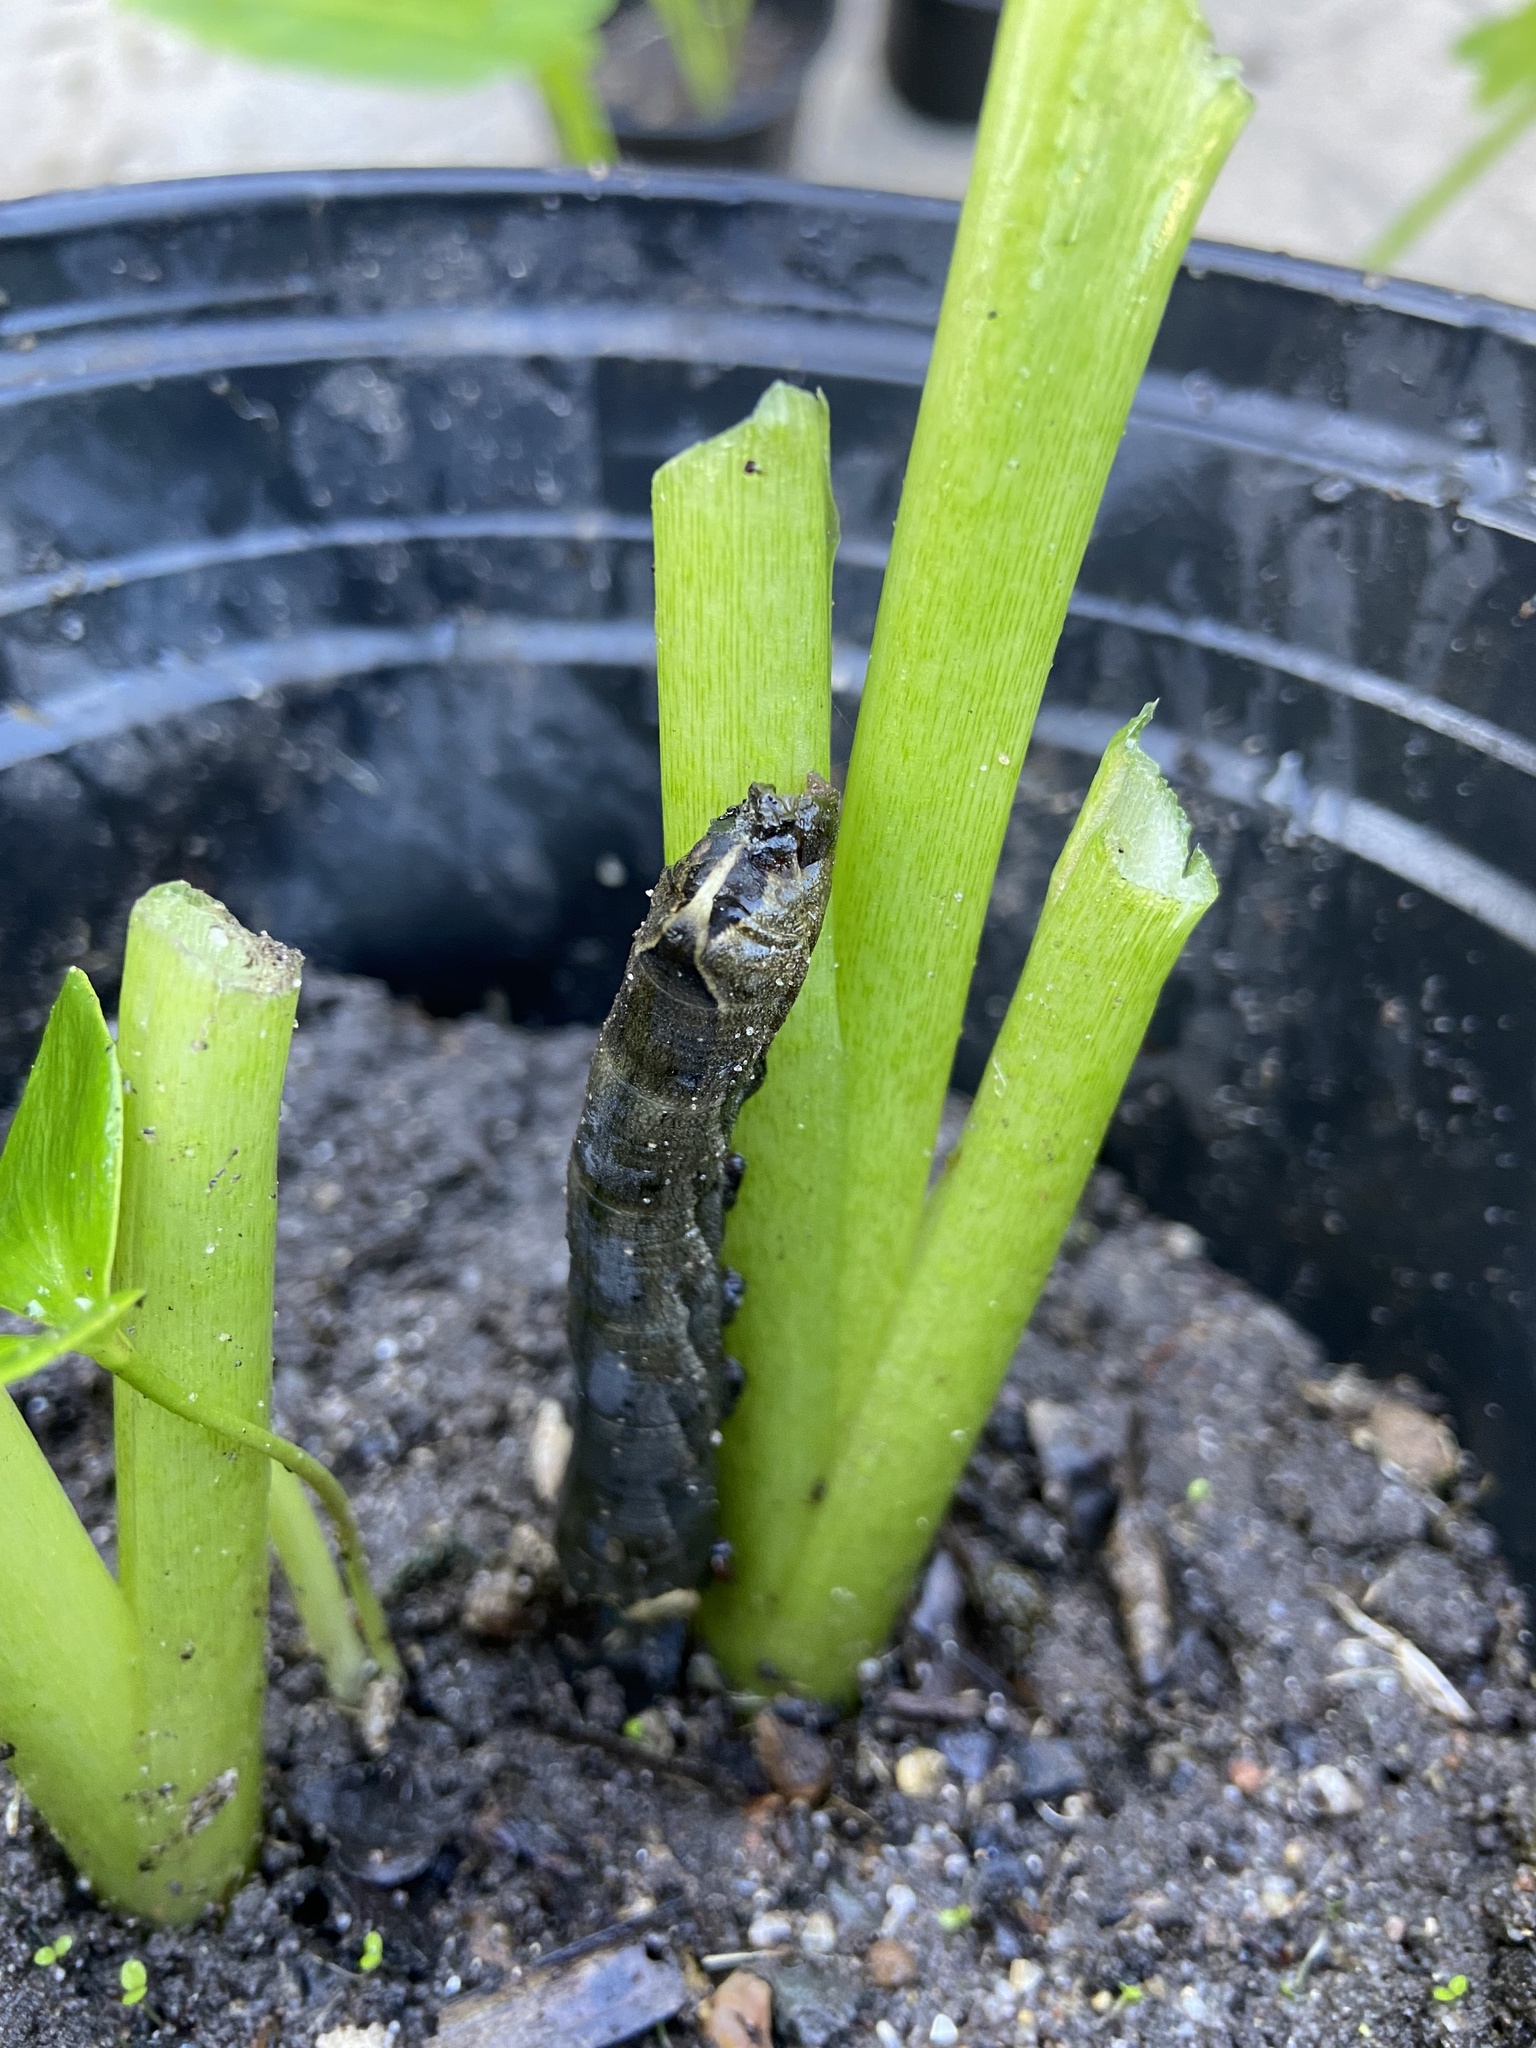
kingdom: Animalia
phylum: Arthropoda
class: Insecta
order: Lepidoptera
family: Sphingidae
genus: Hippotion
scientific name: Hippotion eson
